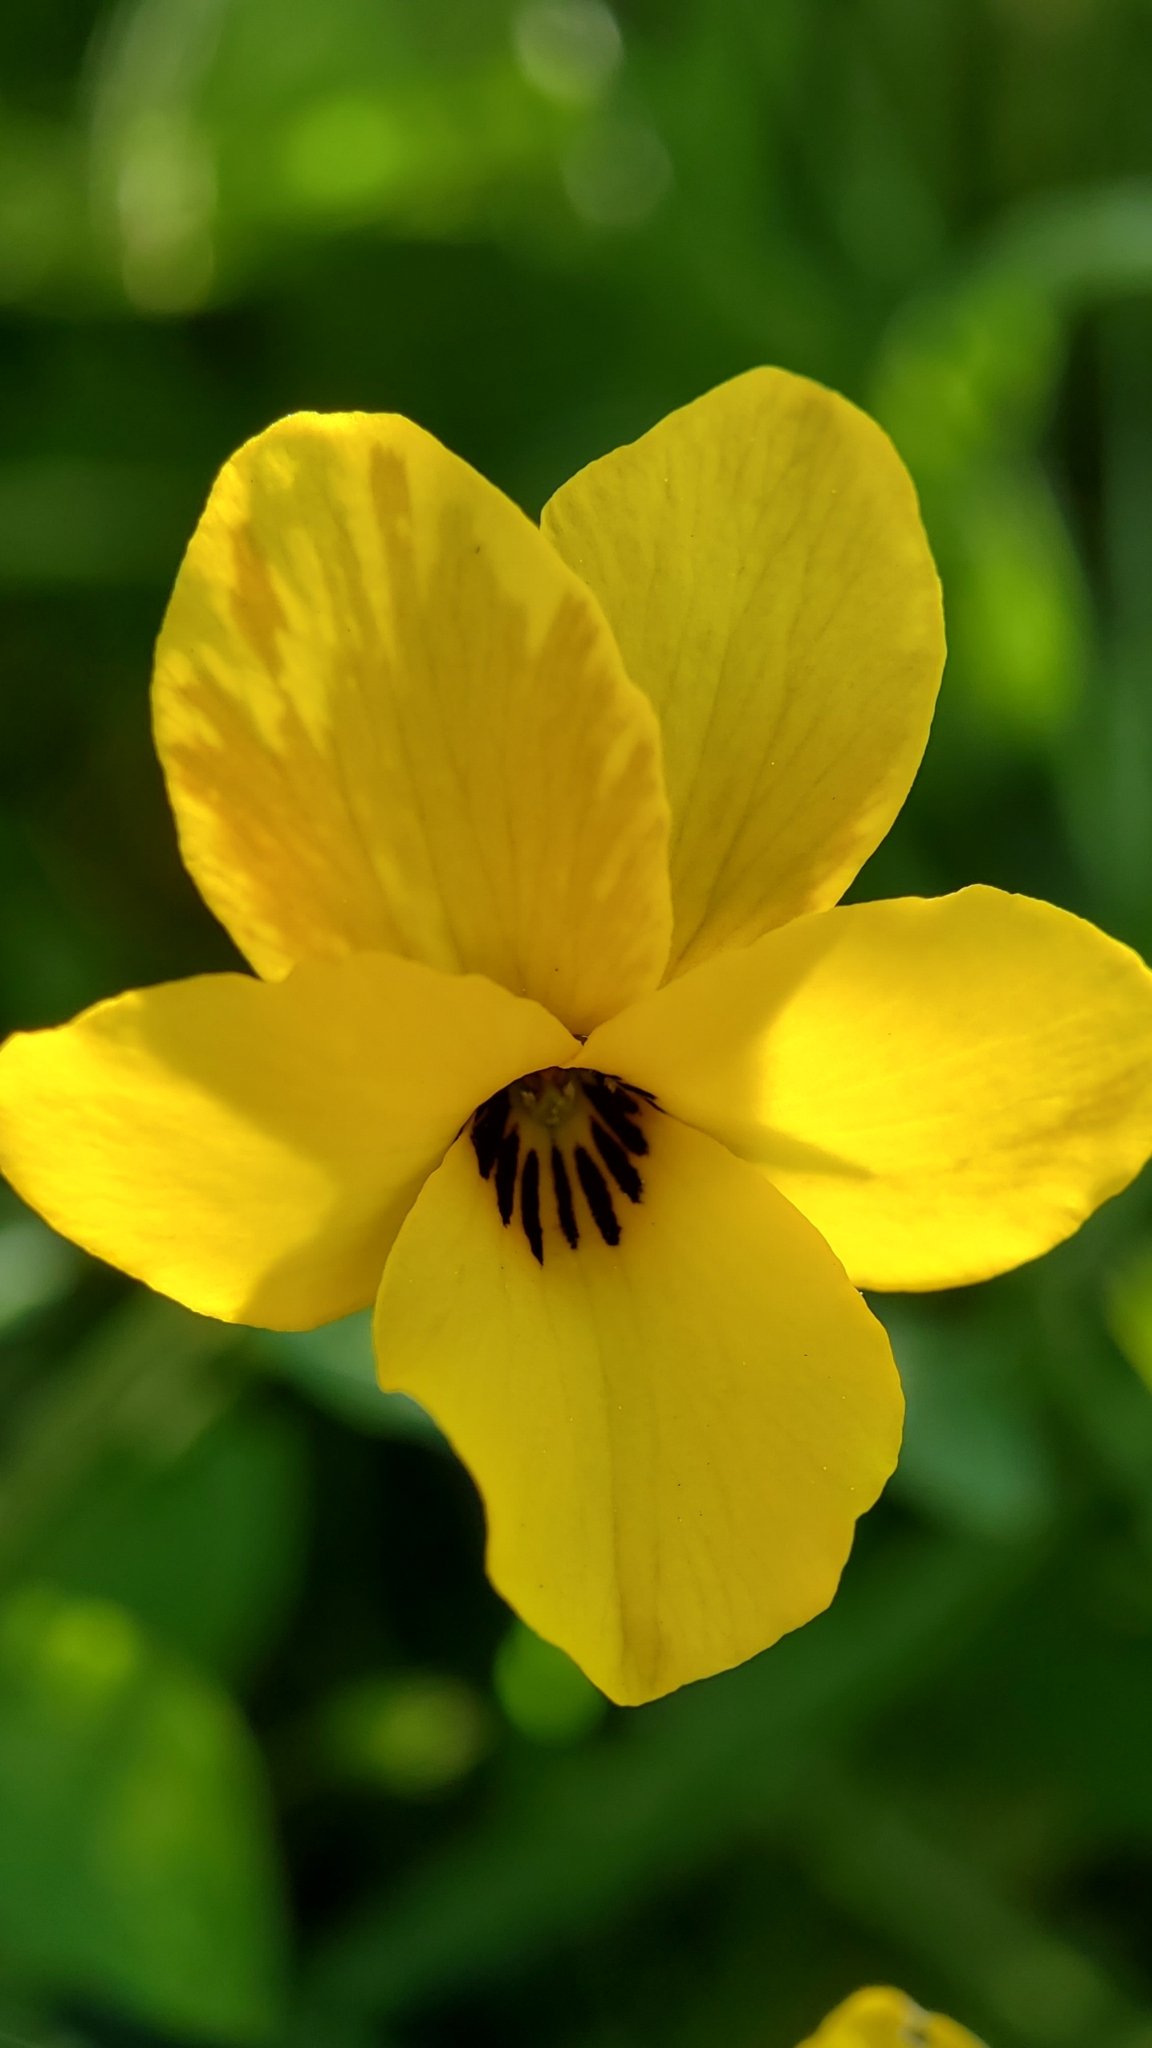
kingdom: Plantae
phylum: Tracheophyta
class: Magnoliopsida
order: Malpighiales
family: Violaceae
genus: Viola
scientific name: Viola pedunculata
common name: California golden violet
